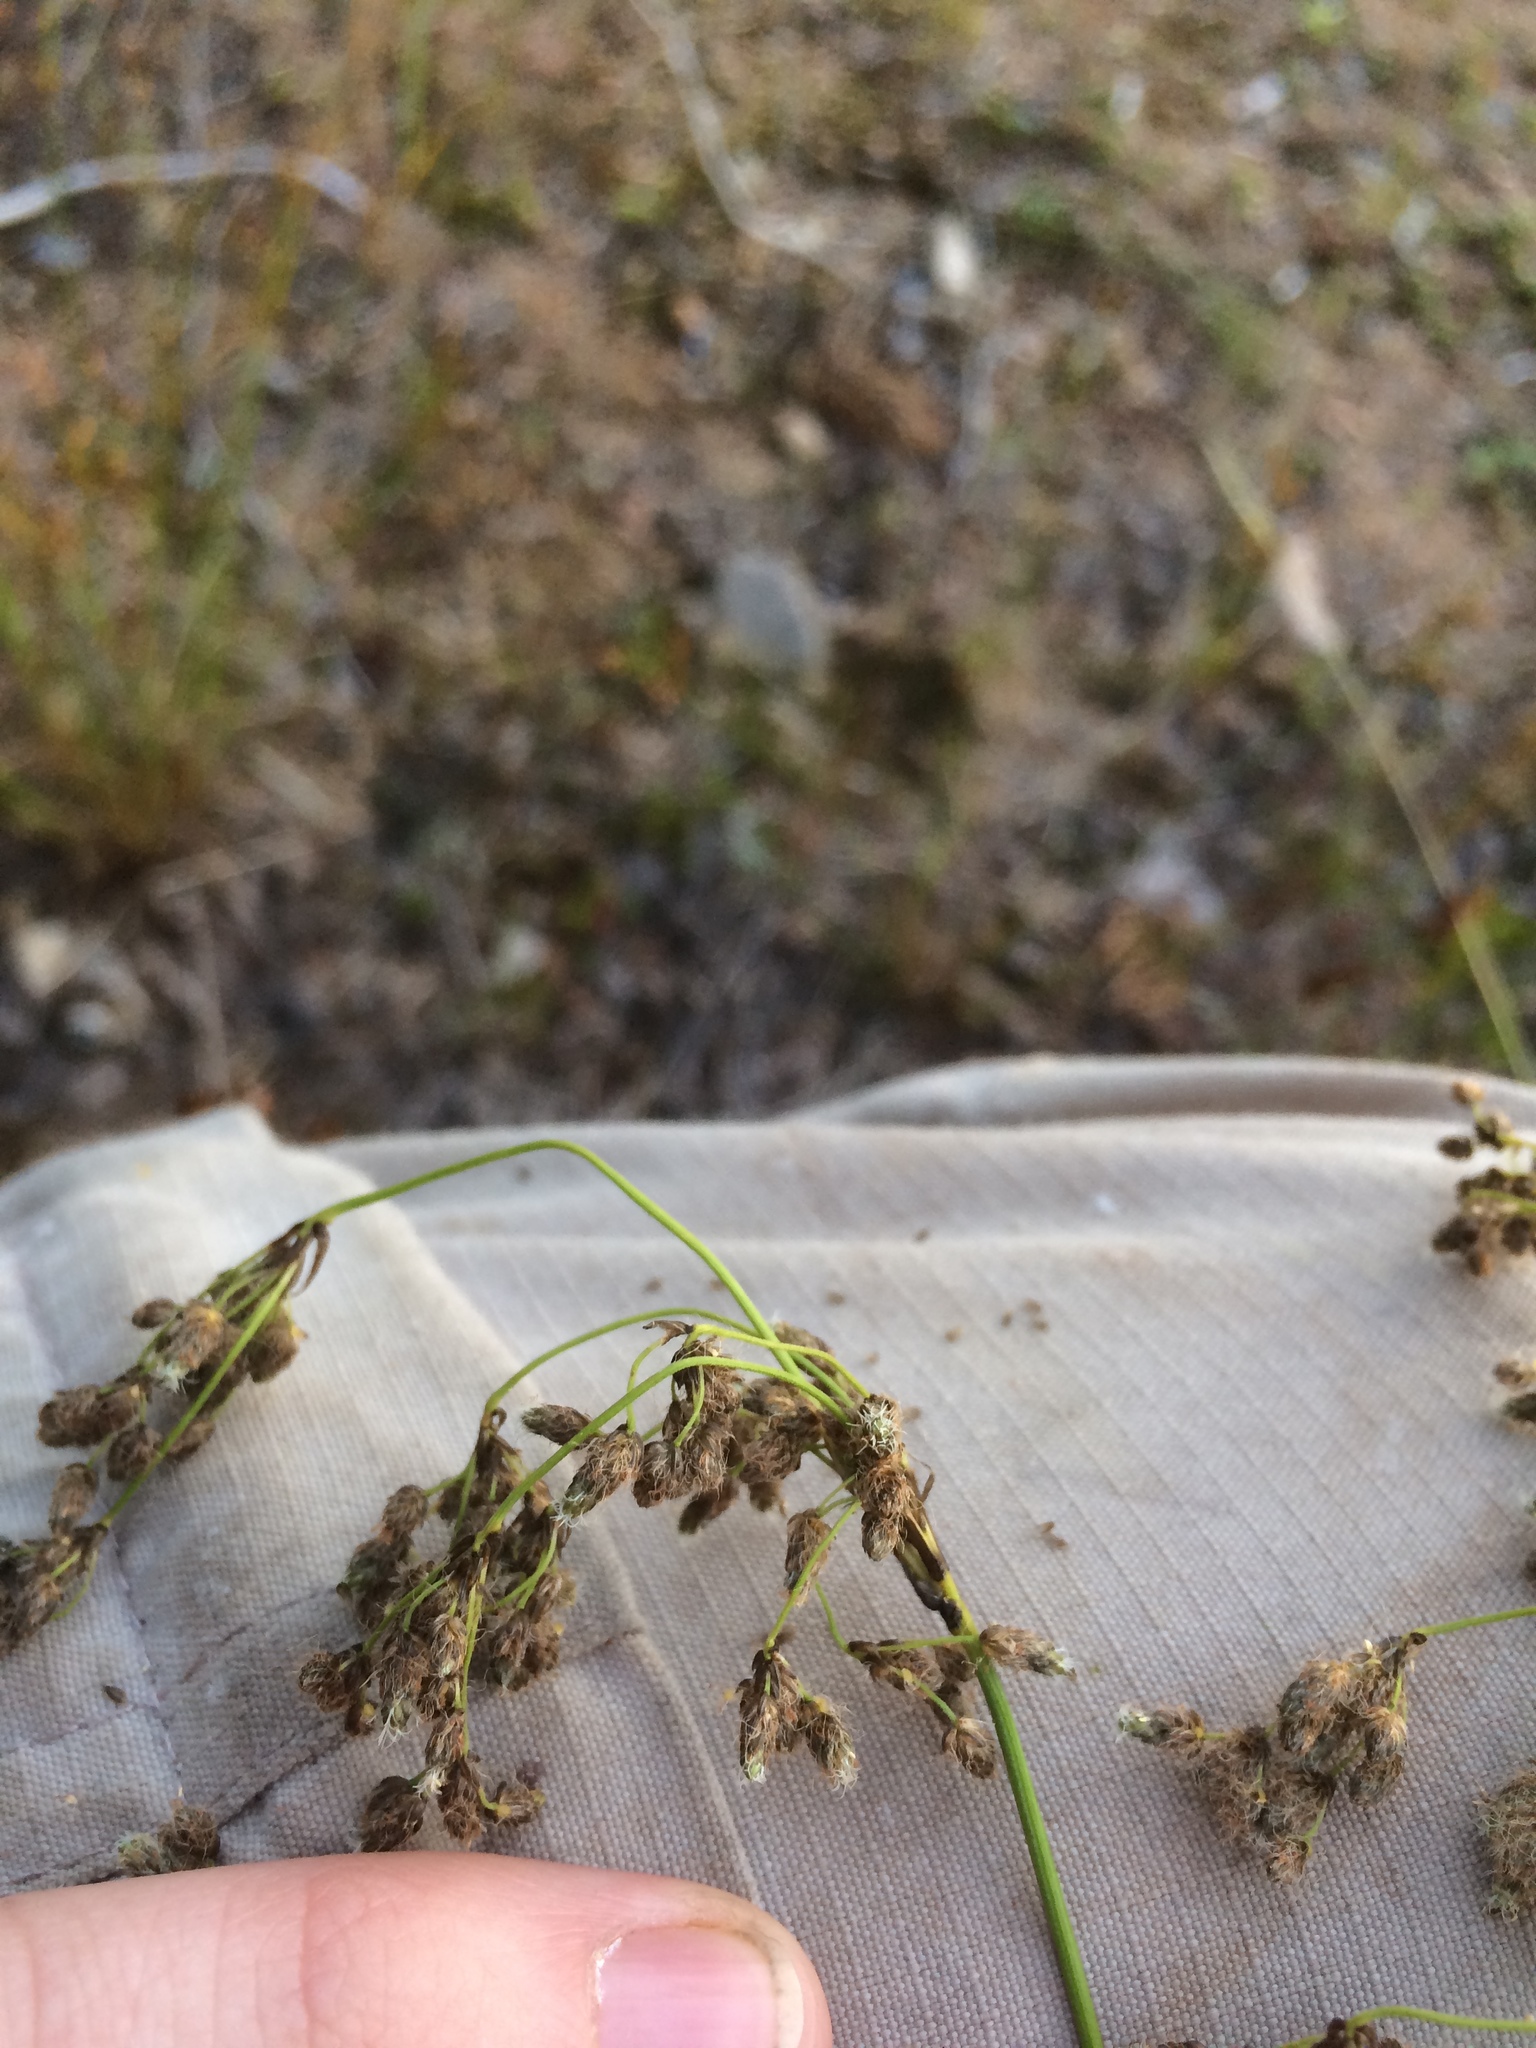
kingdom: Plantae
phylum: Tracheophyta
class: Liliopsida
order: Poales
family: Cyperaceae
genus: Scirpus
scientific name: Scirpus atrocinctus
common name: Black-girdled bulrush
